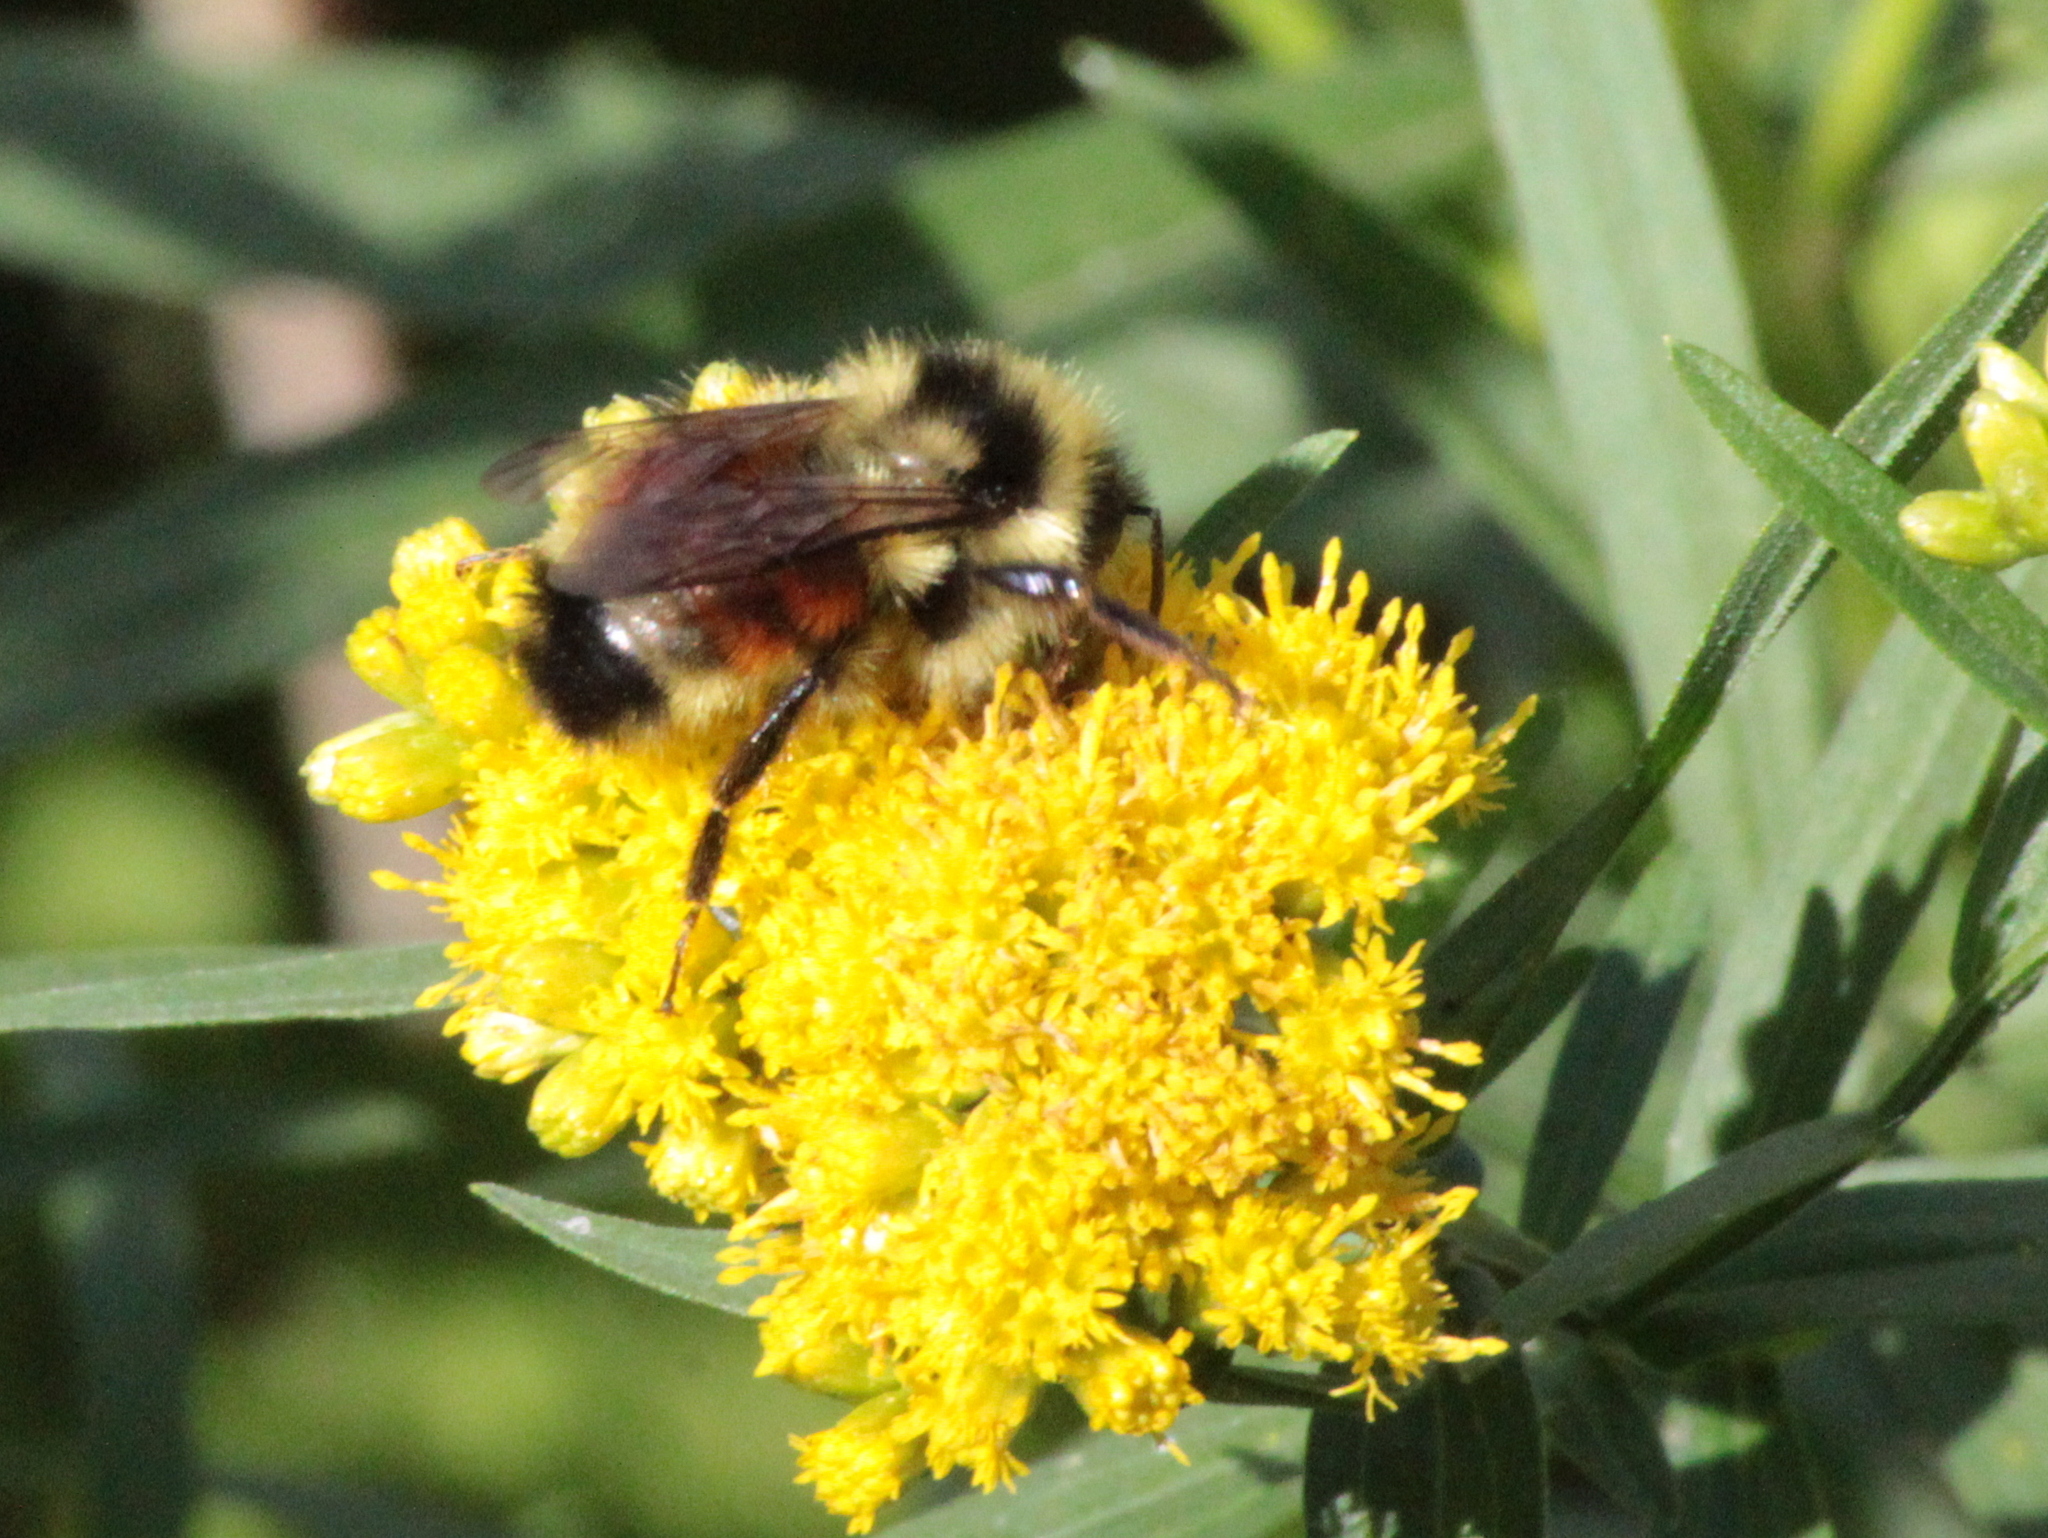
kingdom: Animalia
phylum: Arthropoda
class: Insecta
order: Hymenoptera
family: Apidae
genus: Bombus
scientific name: Bombus ternarius
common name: Tri-colored bumble bee
